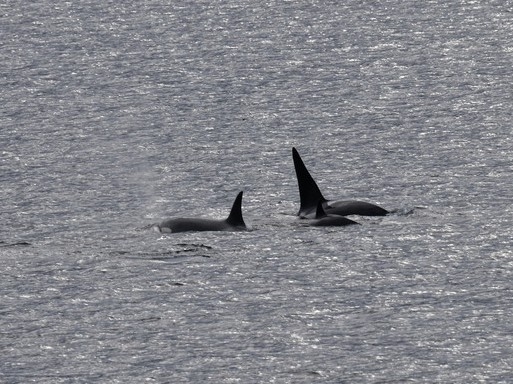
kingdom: Animalia
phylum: Chordata
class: Mammalia
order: Cetacea
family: Delphinidae
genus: Orcinus
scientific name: Orcinus orca
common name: Killer whale
